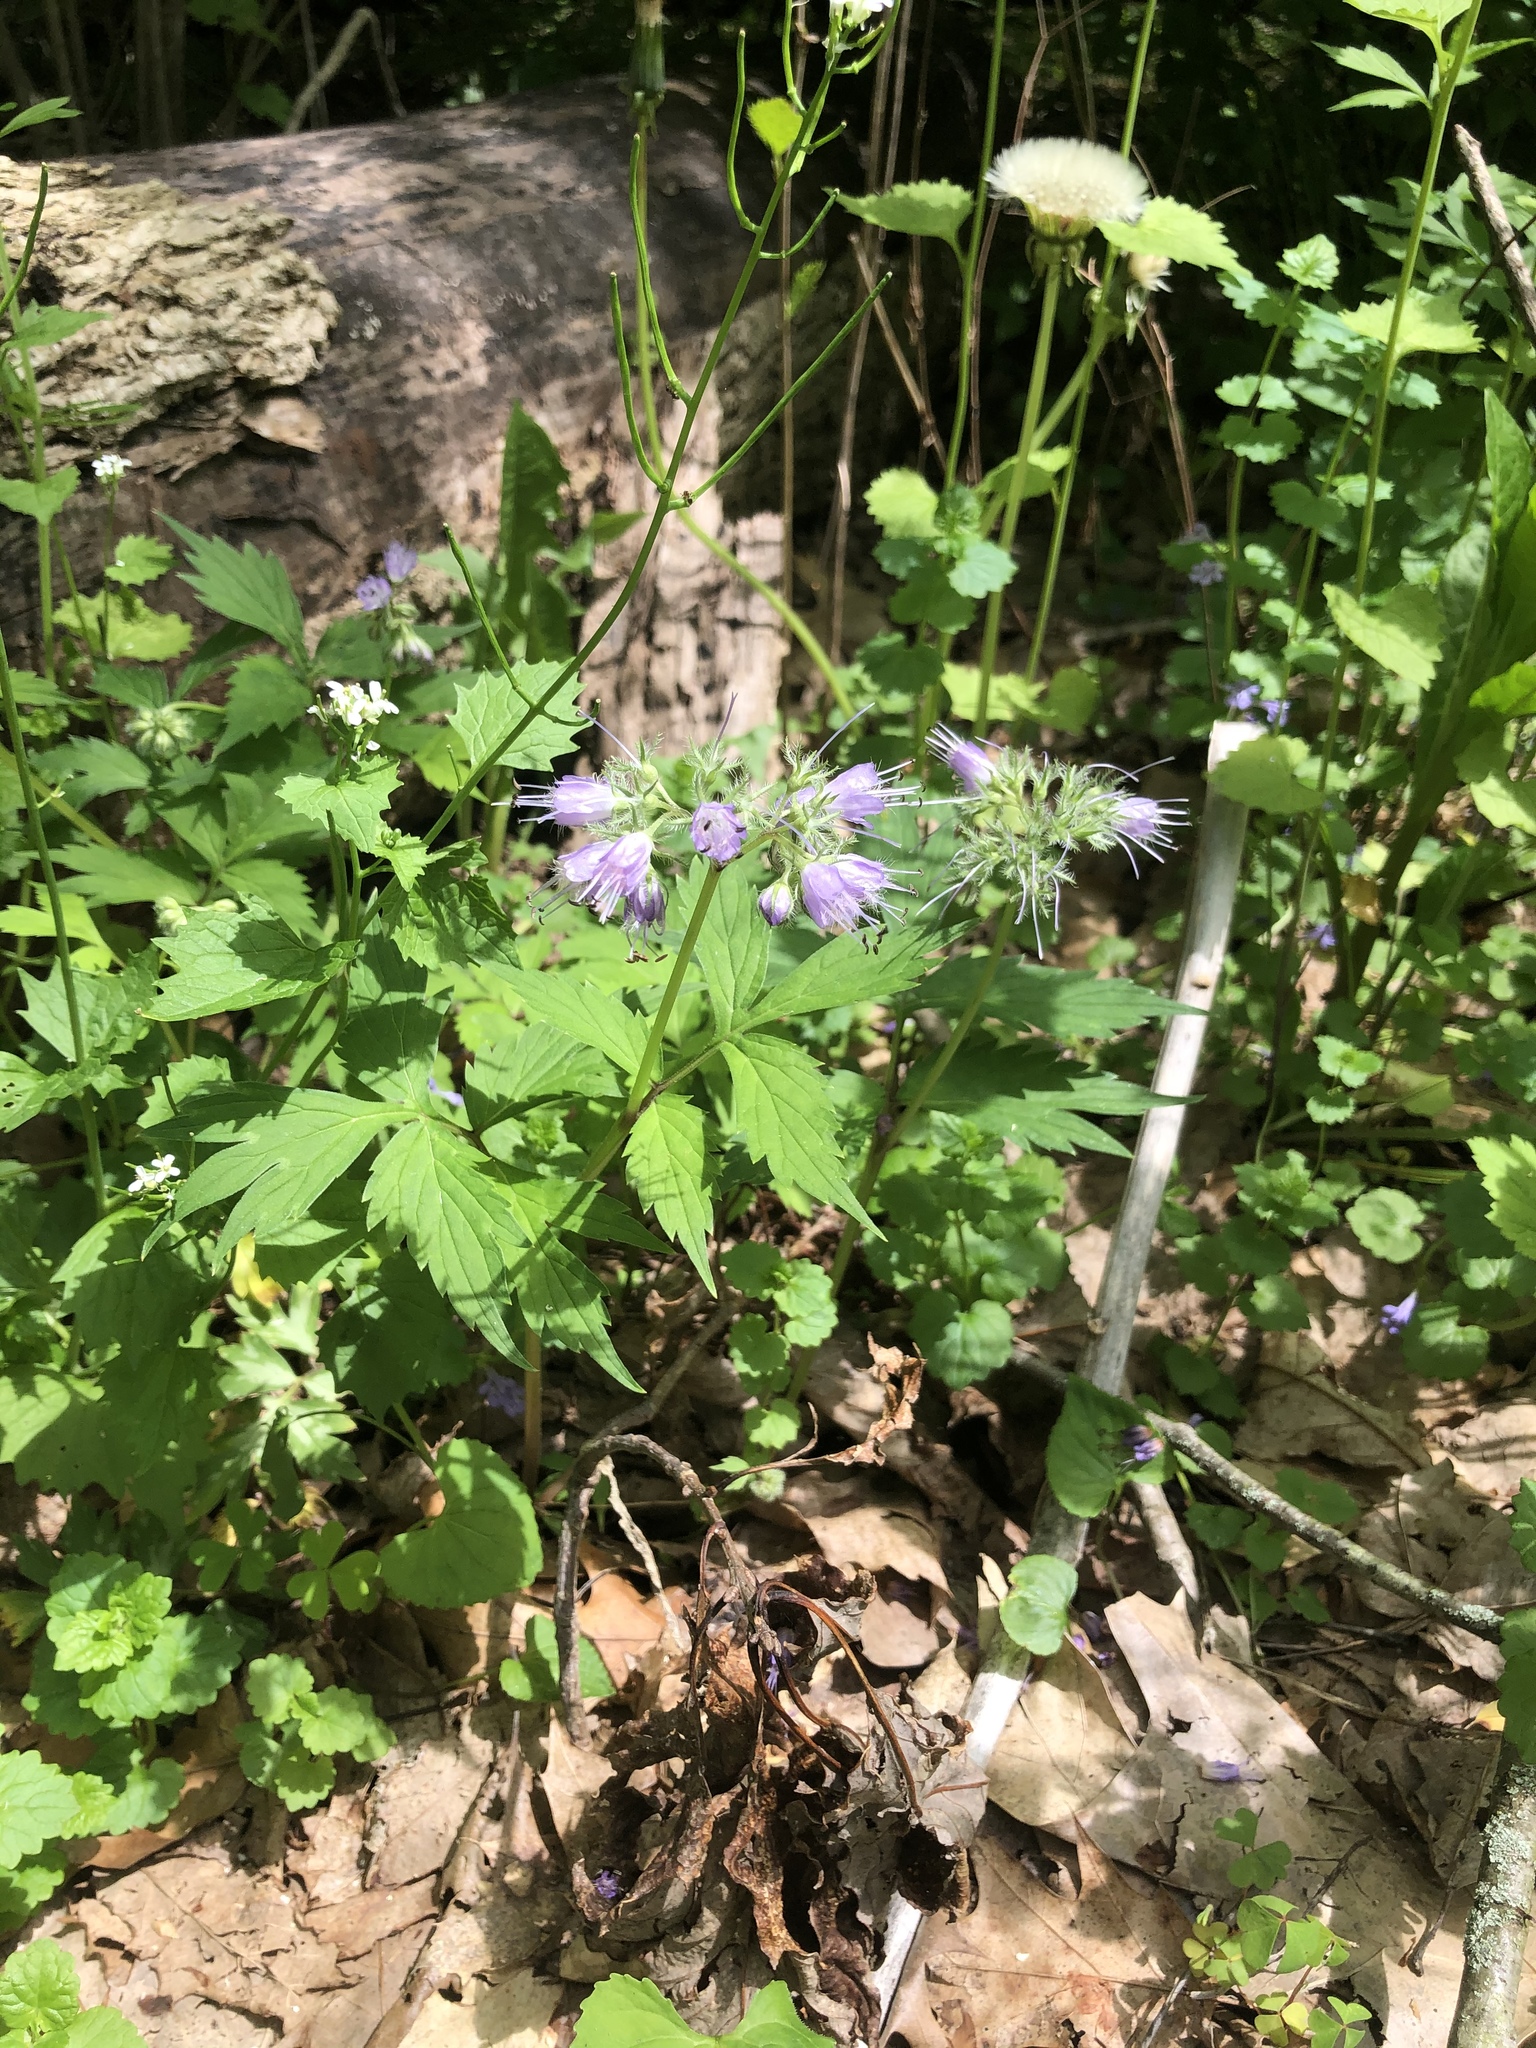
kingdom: Plantae
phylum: Tracheophyta
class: Magnoliopsida
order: Boraginales
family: Hydrophyllaceae
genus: Hydrophyllum
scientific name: Hydrophyllum virginianum
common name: Virginia waterleaf
